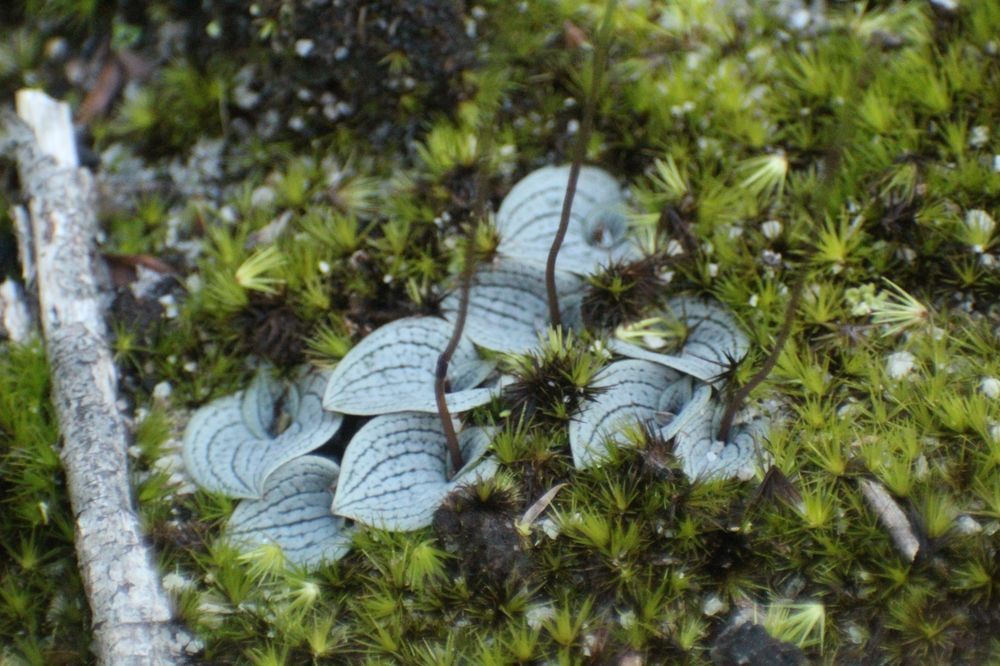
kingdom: Plantae
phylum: Tracheophyta
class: Liliopsida
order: Asparagales
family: Orchidaceae
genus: Drakaea
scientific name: Drakaea glyptodon
